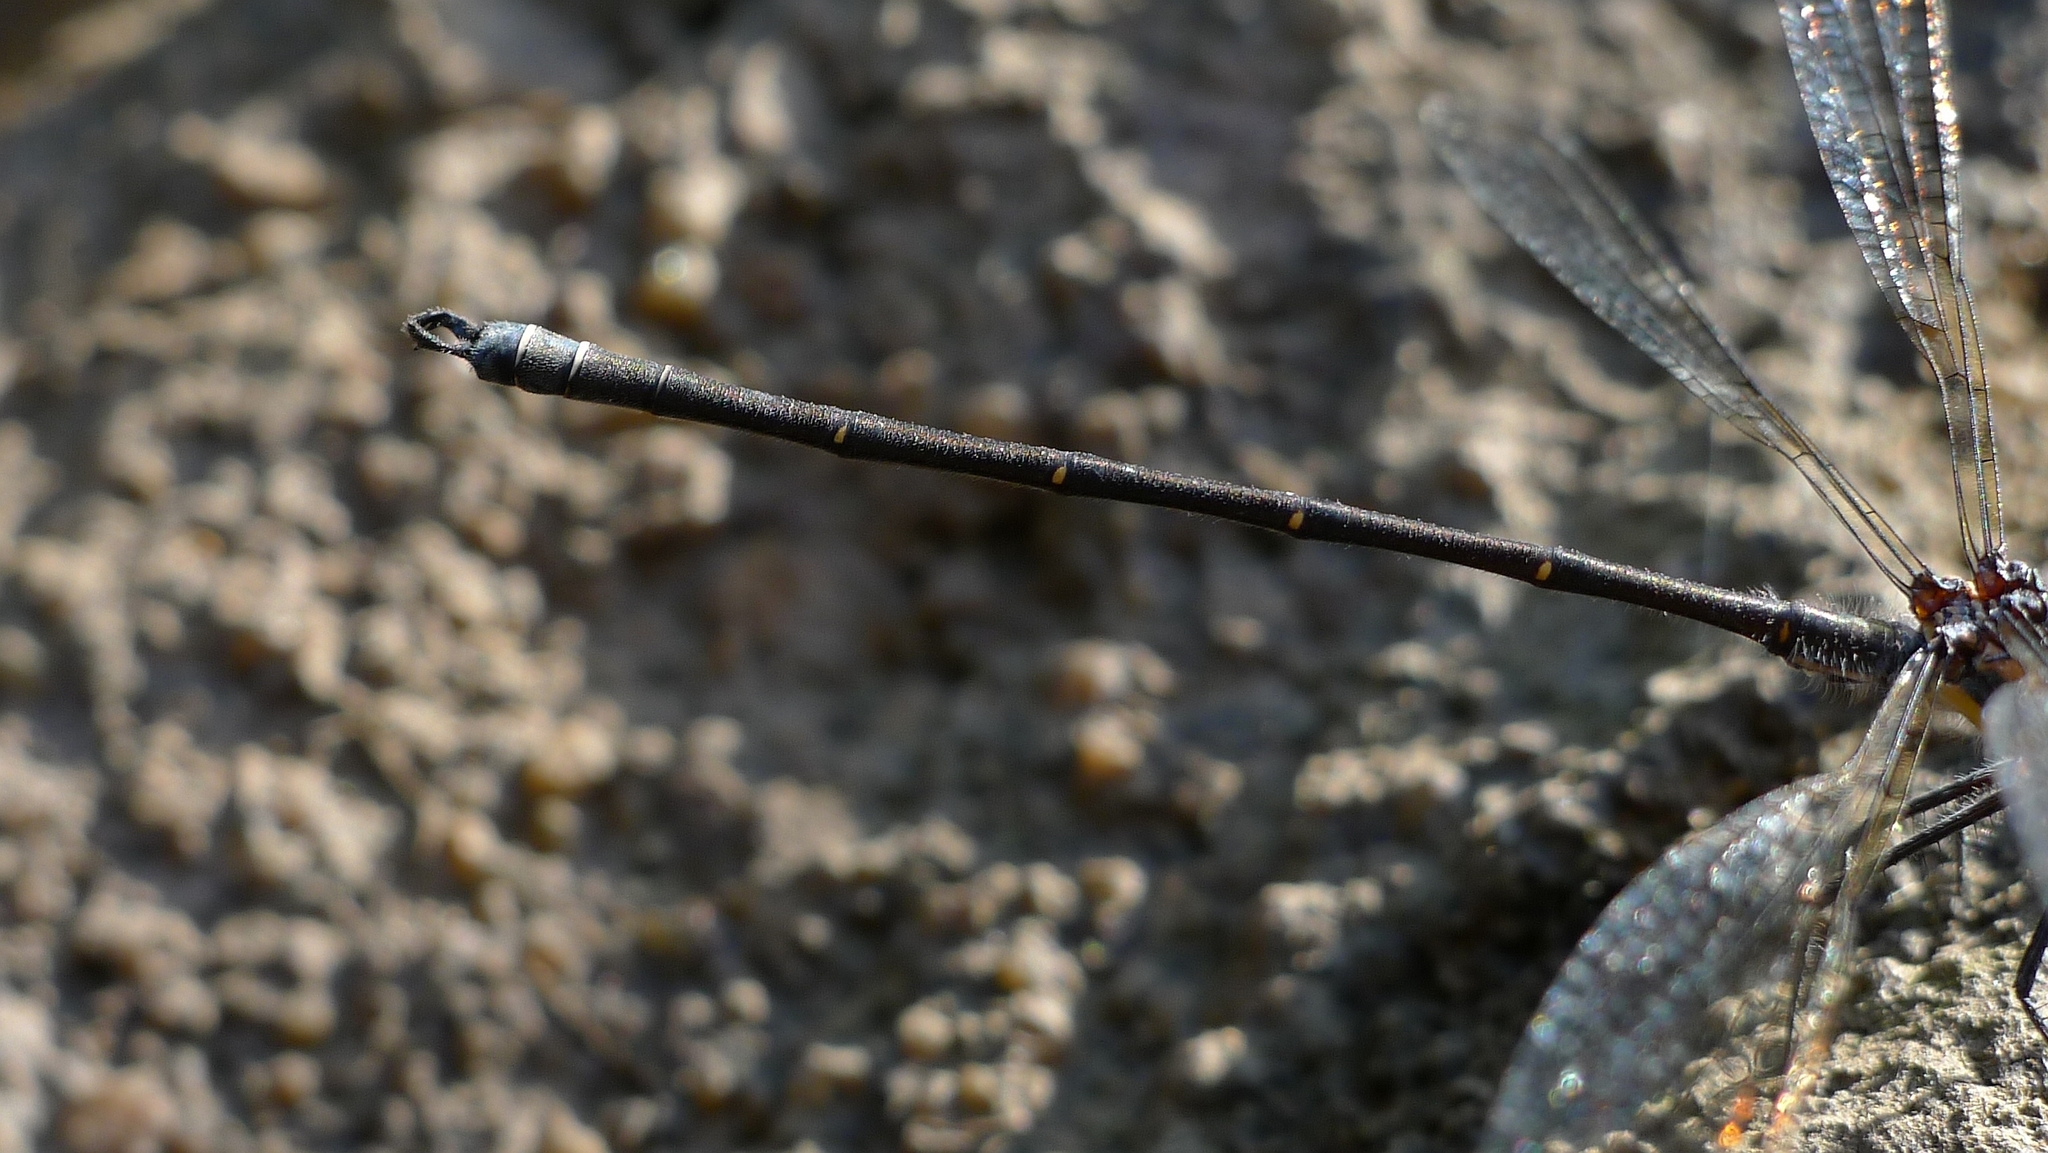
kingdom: Animalia
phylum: Arthropoda
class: Insecta
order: Odonata
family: Argiolestidae
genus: Austroargiolestes
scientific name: Austroargiolestes icteromelas
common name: Common flatwing
